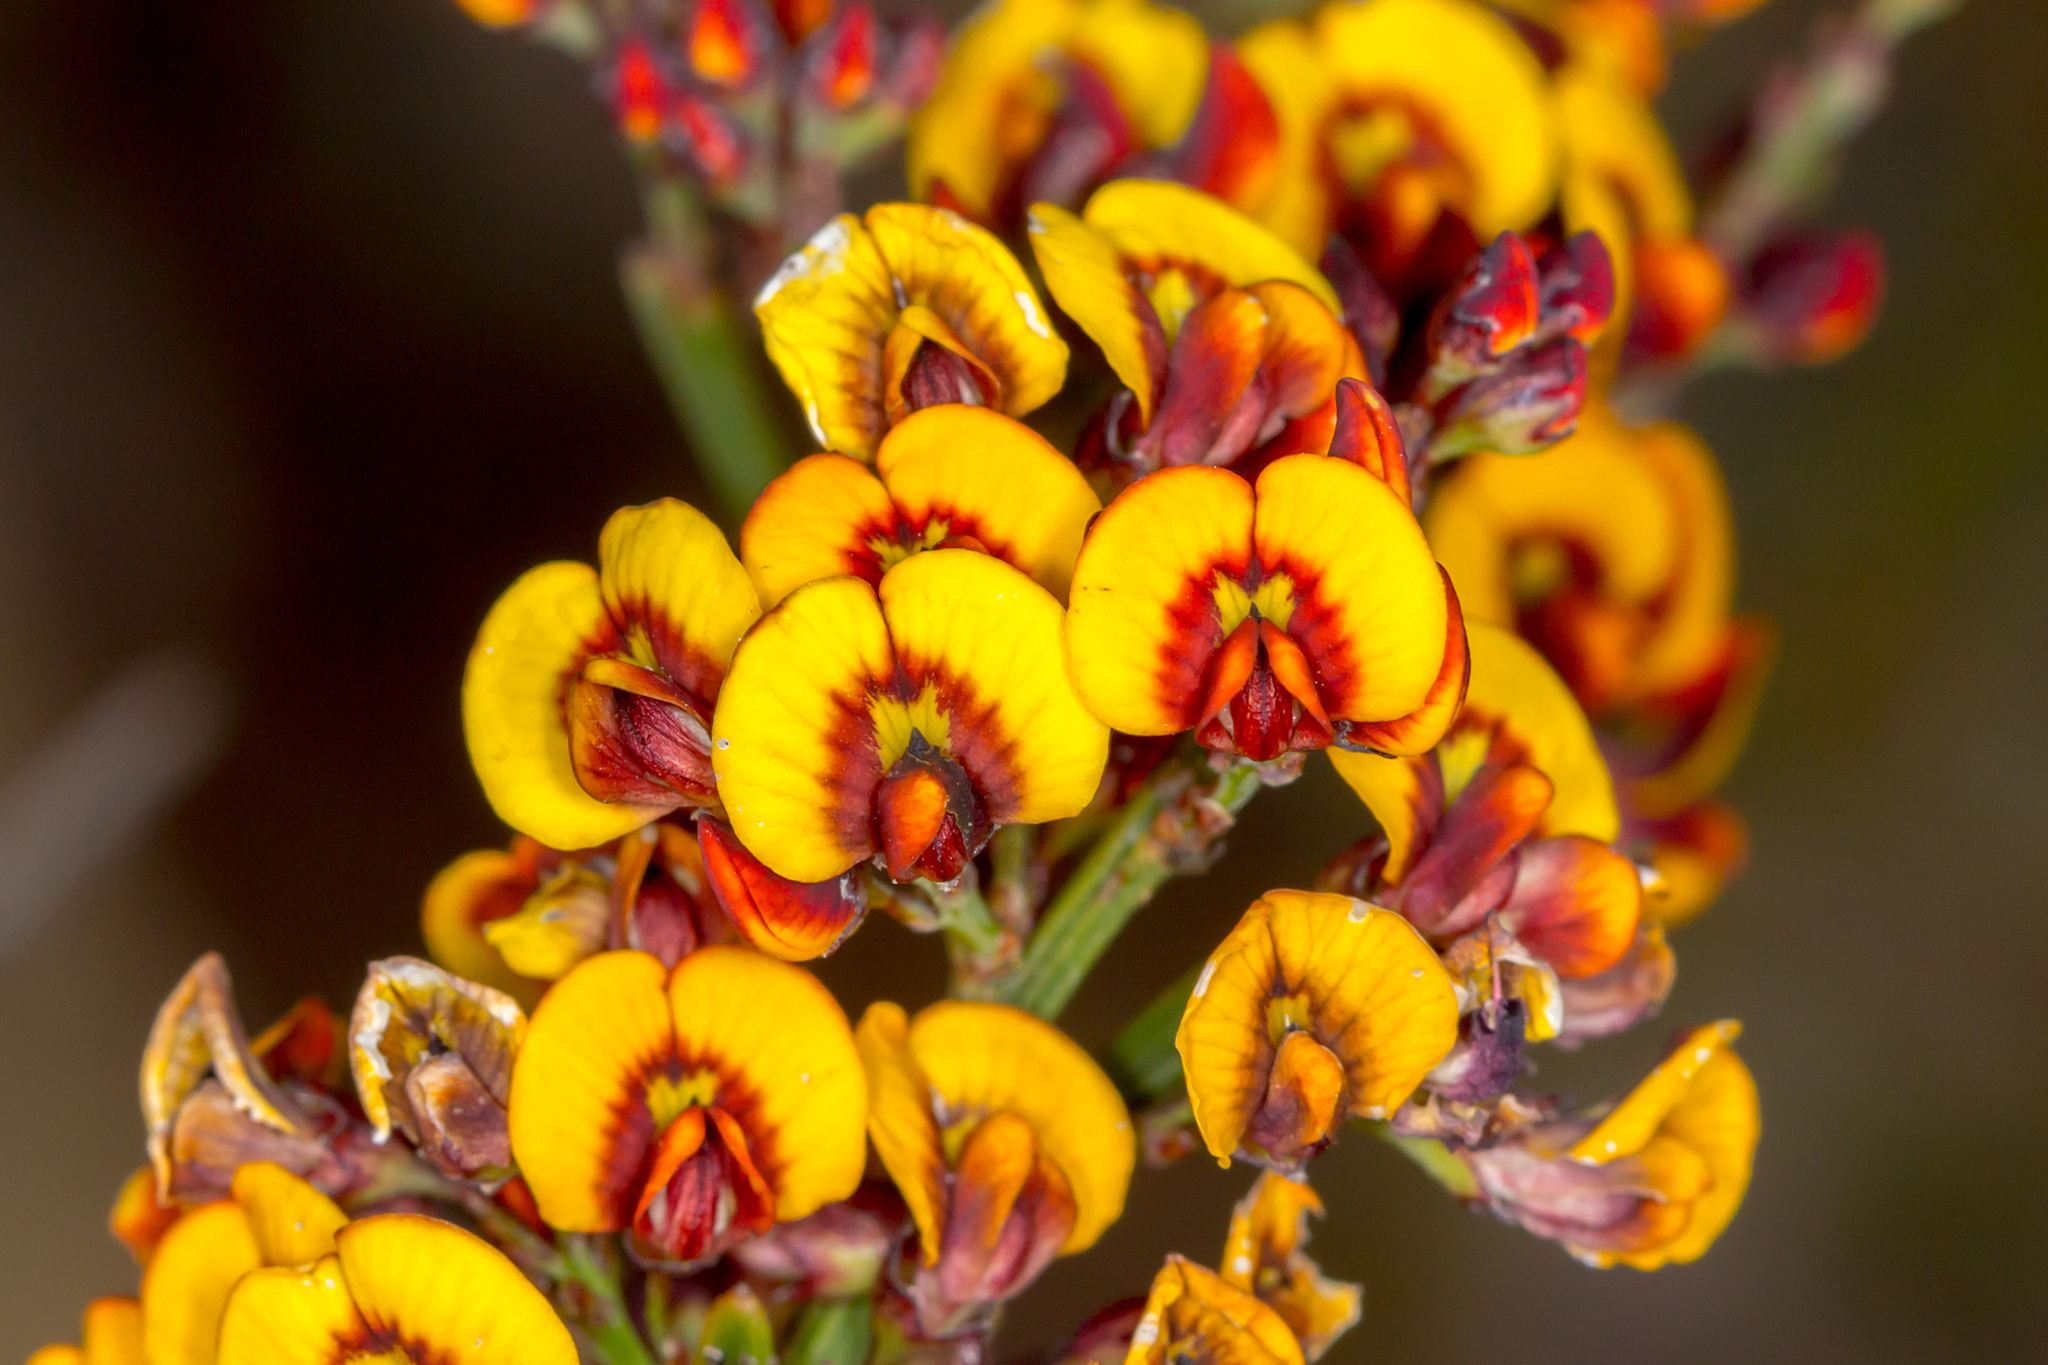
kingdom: Plantae
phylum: Tracheophyta
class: Magnoliopsida
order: Fabales
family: Fabaceae
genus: Daviesia
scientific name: Daviesia leptophylla
